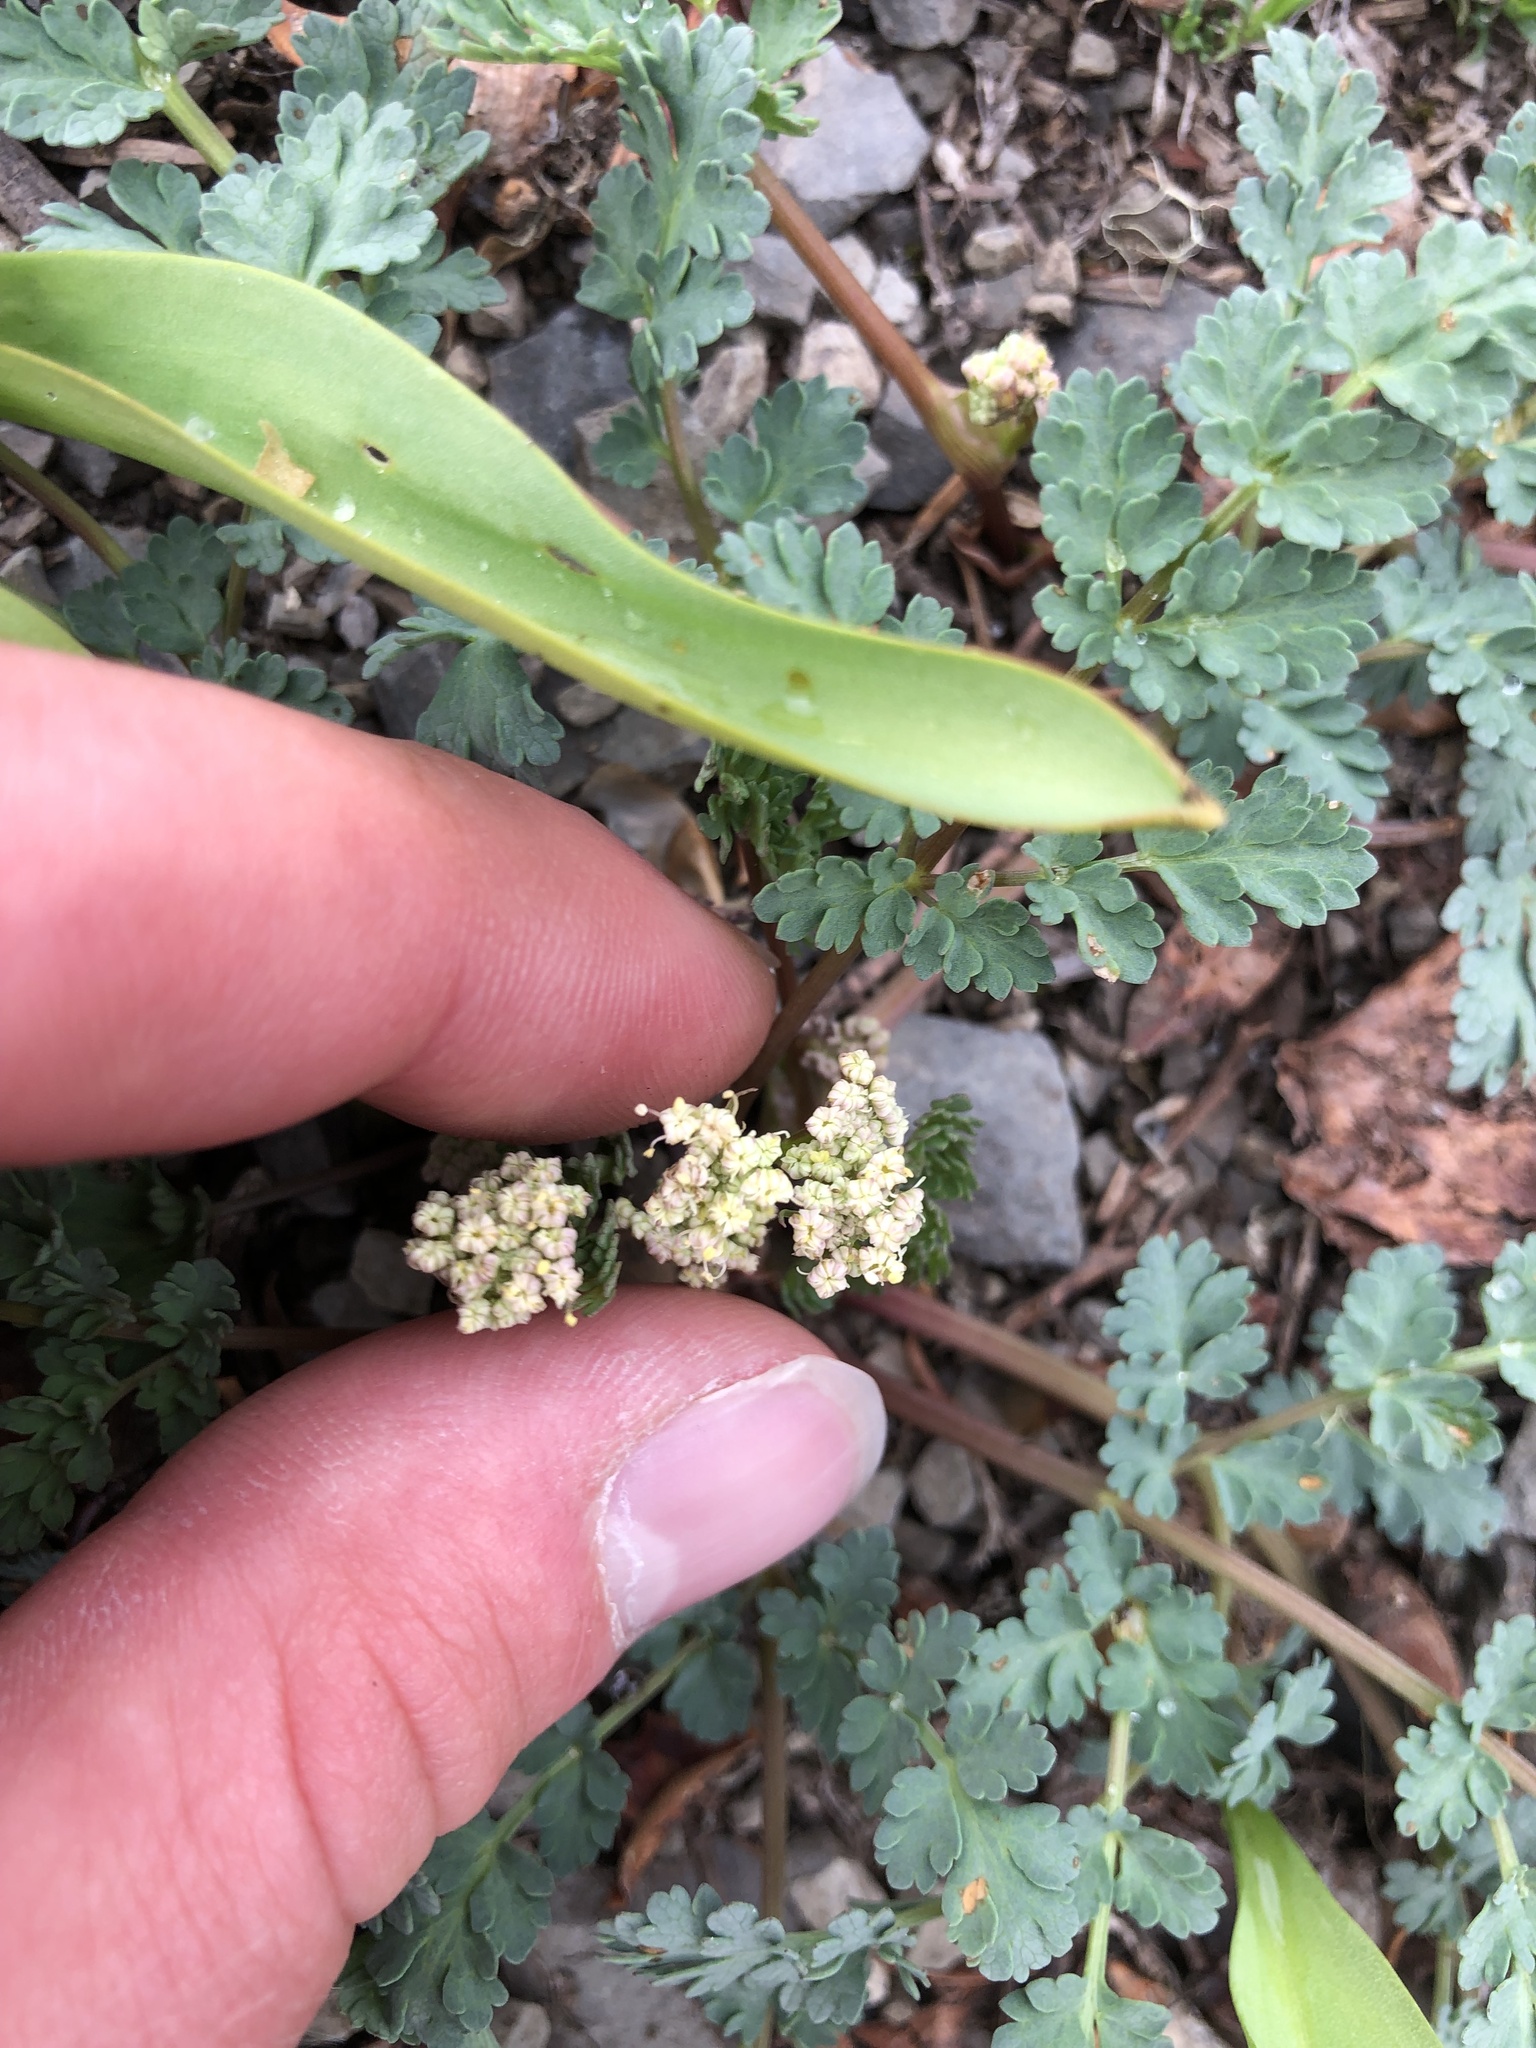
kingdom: Plantae
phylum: Tracheophyta
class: Magnoliopsida
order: Apiales
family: Apiaceae
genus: Lomatium
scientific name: Lomatium martindalei
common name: Cascade desert-parsley
